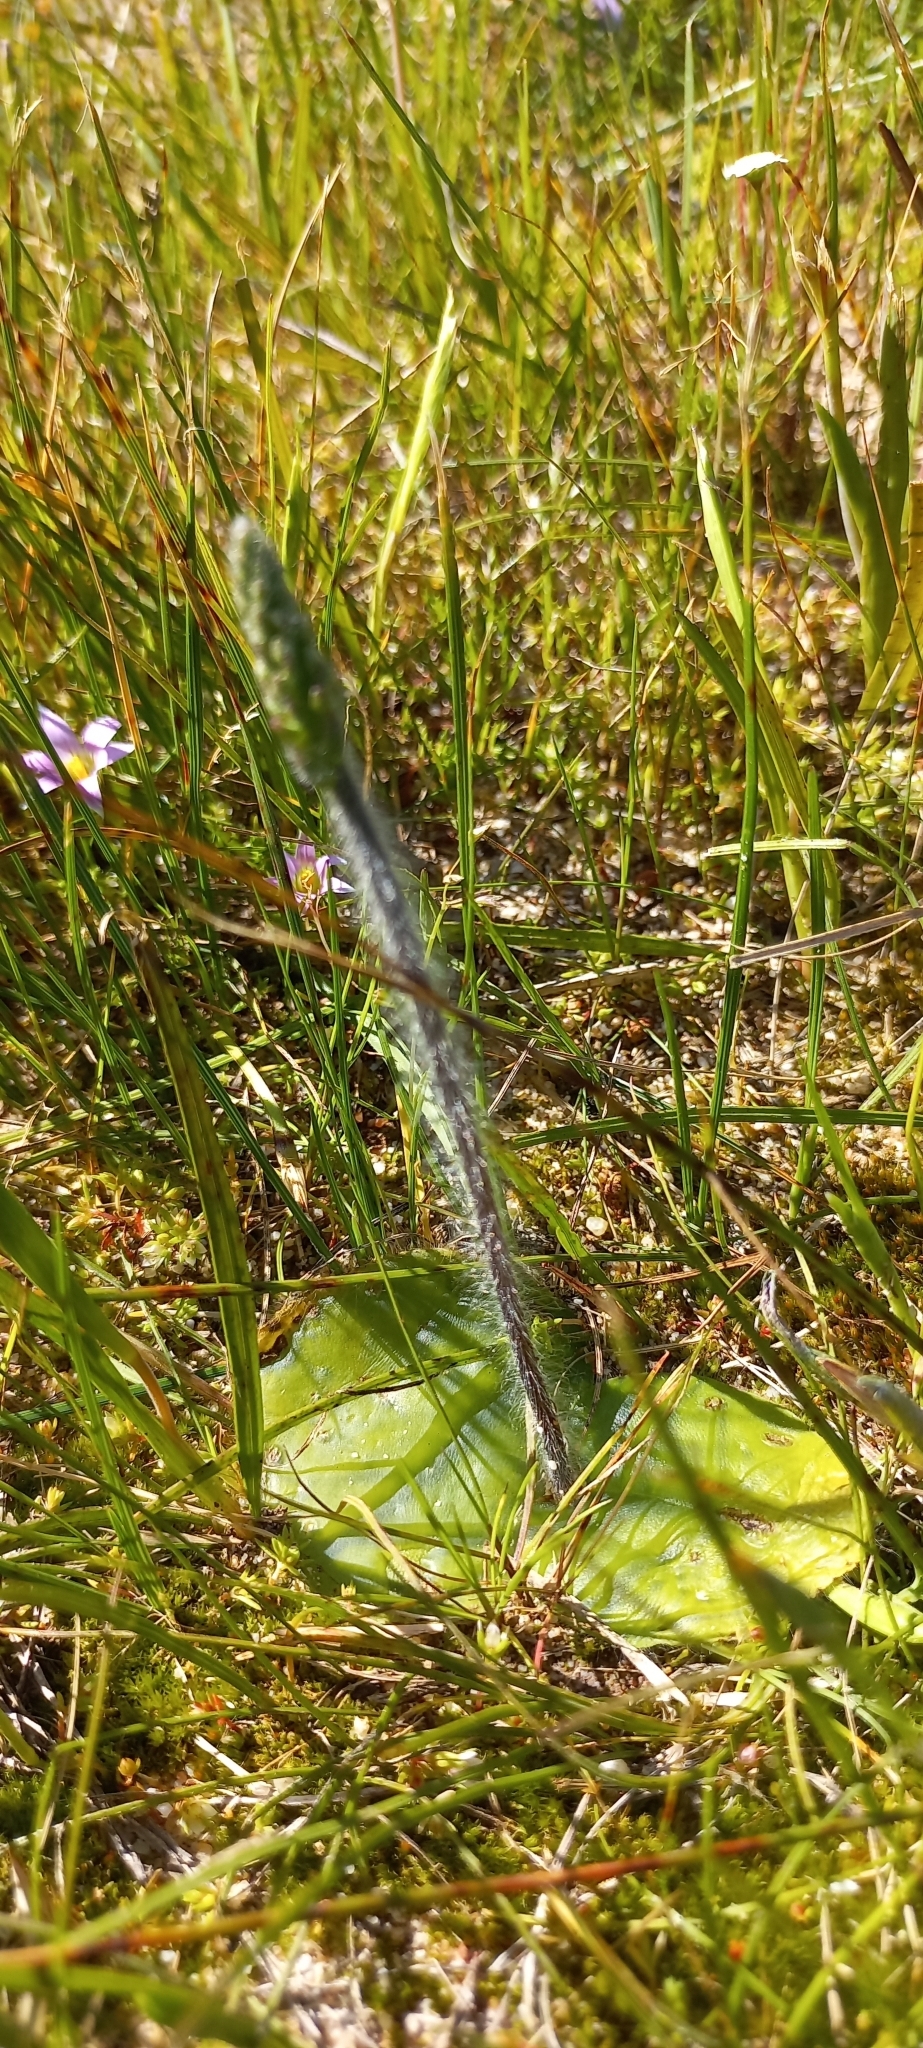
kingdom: Plantae
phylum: Tracheophyta
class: Liliopsida
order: Asparagales
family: Orchidaceae
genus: Holothrix
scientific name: Holothrix villosa
